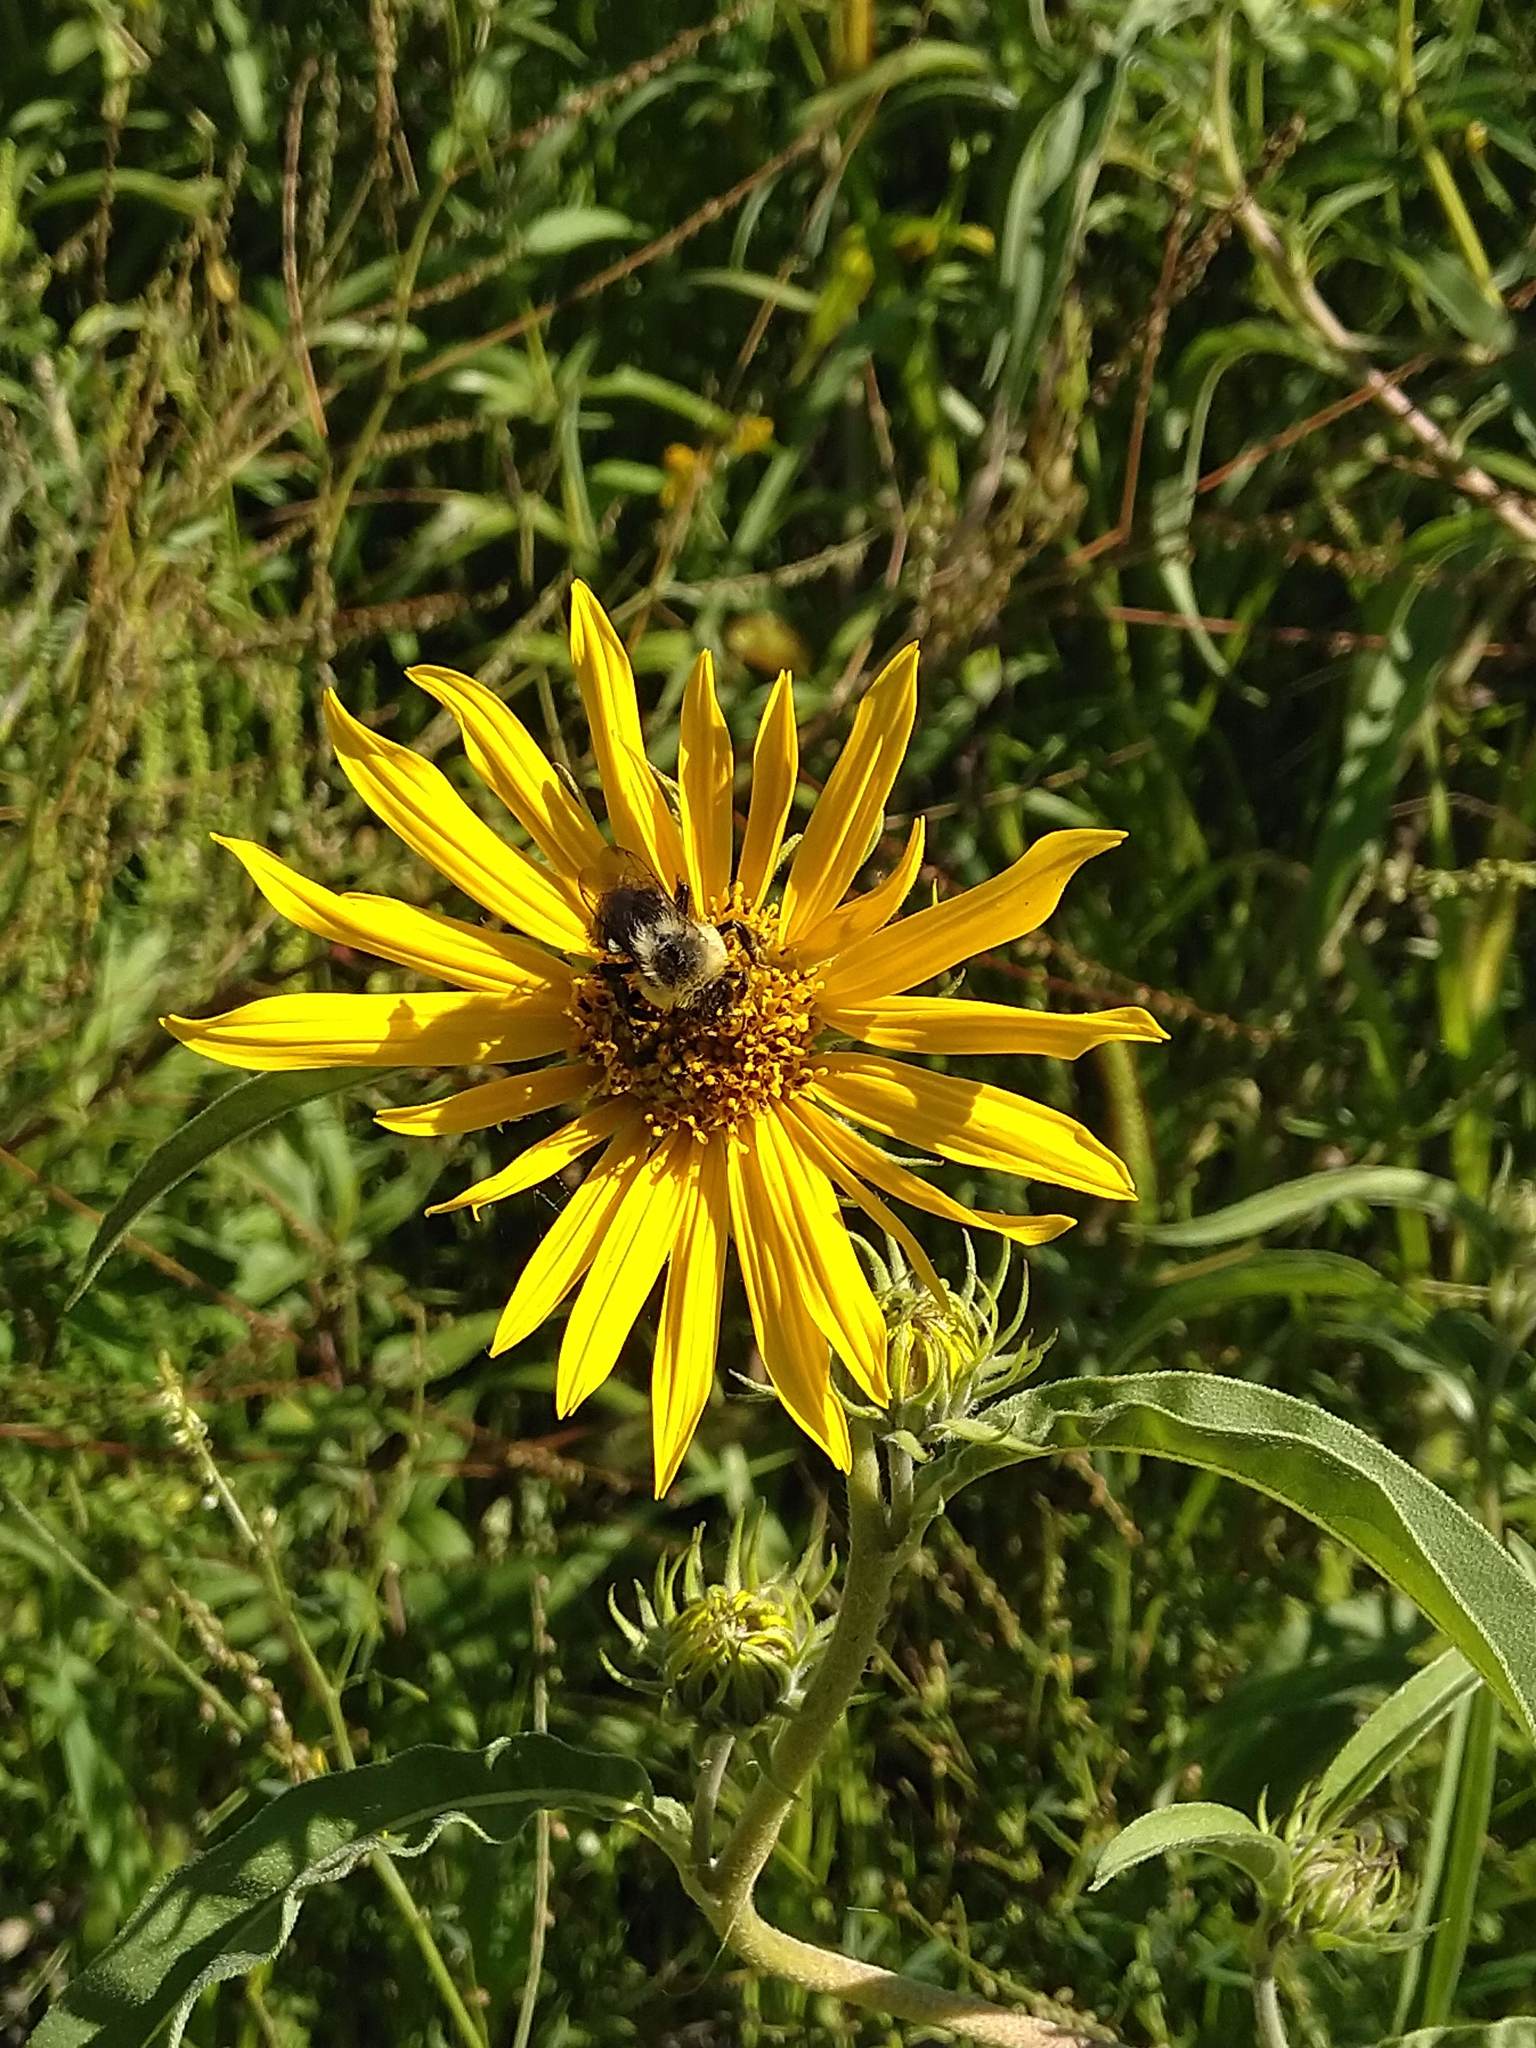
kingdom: Plantae
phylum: Tracheophyta
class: Magnoliopsida
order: Asterales
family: Asteraceae
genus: Helianthus
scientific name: Helianthus maximiliani
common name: Maximilian's sunflower
